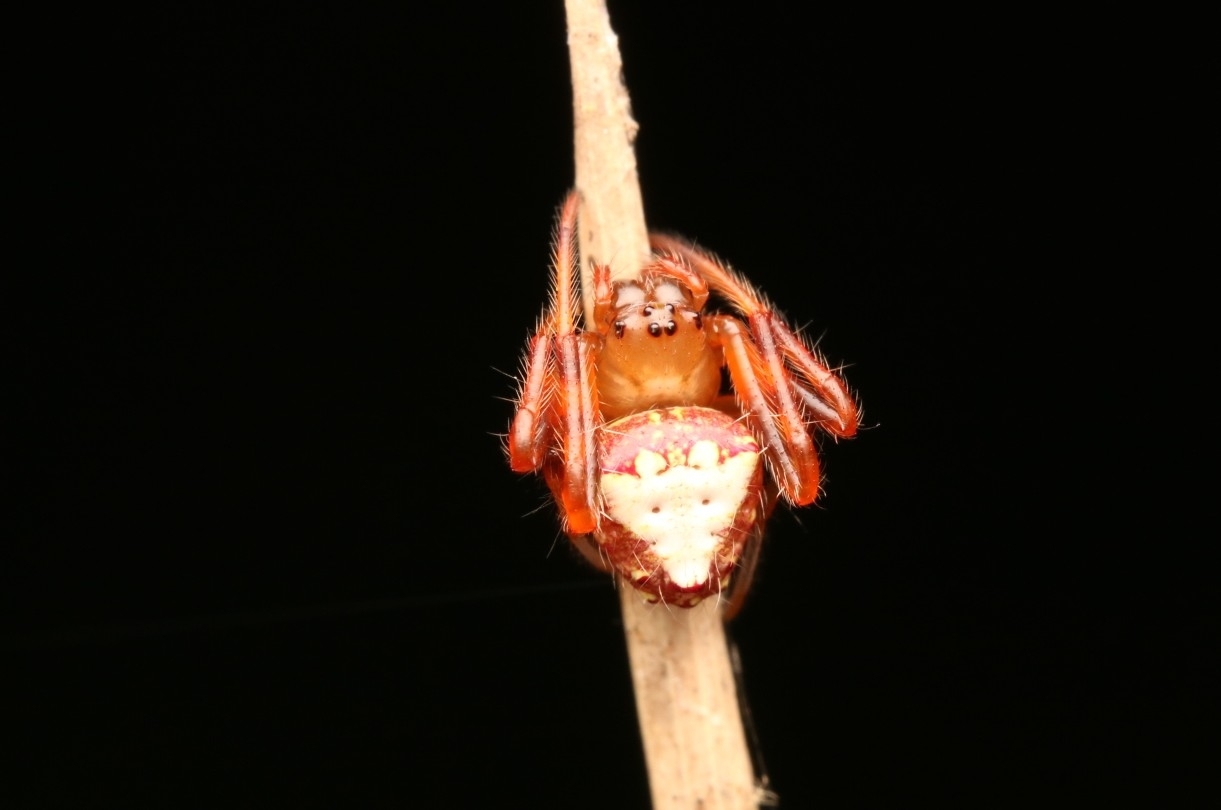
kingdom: Animalia
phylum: Arthropoda
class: Arachnida
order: Araneae
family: Araneidae
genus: Verrucosa
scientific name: Verrucosa arenata
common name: Orb weavers
